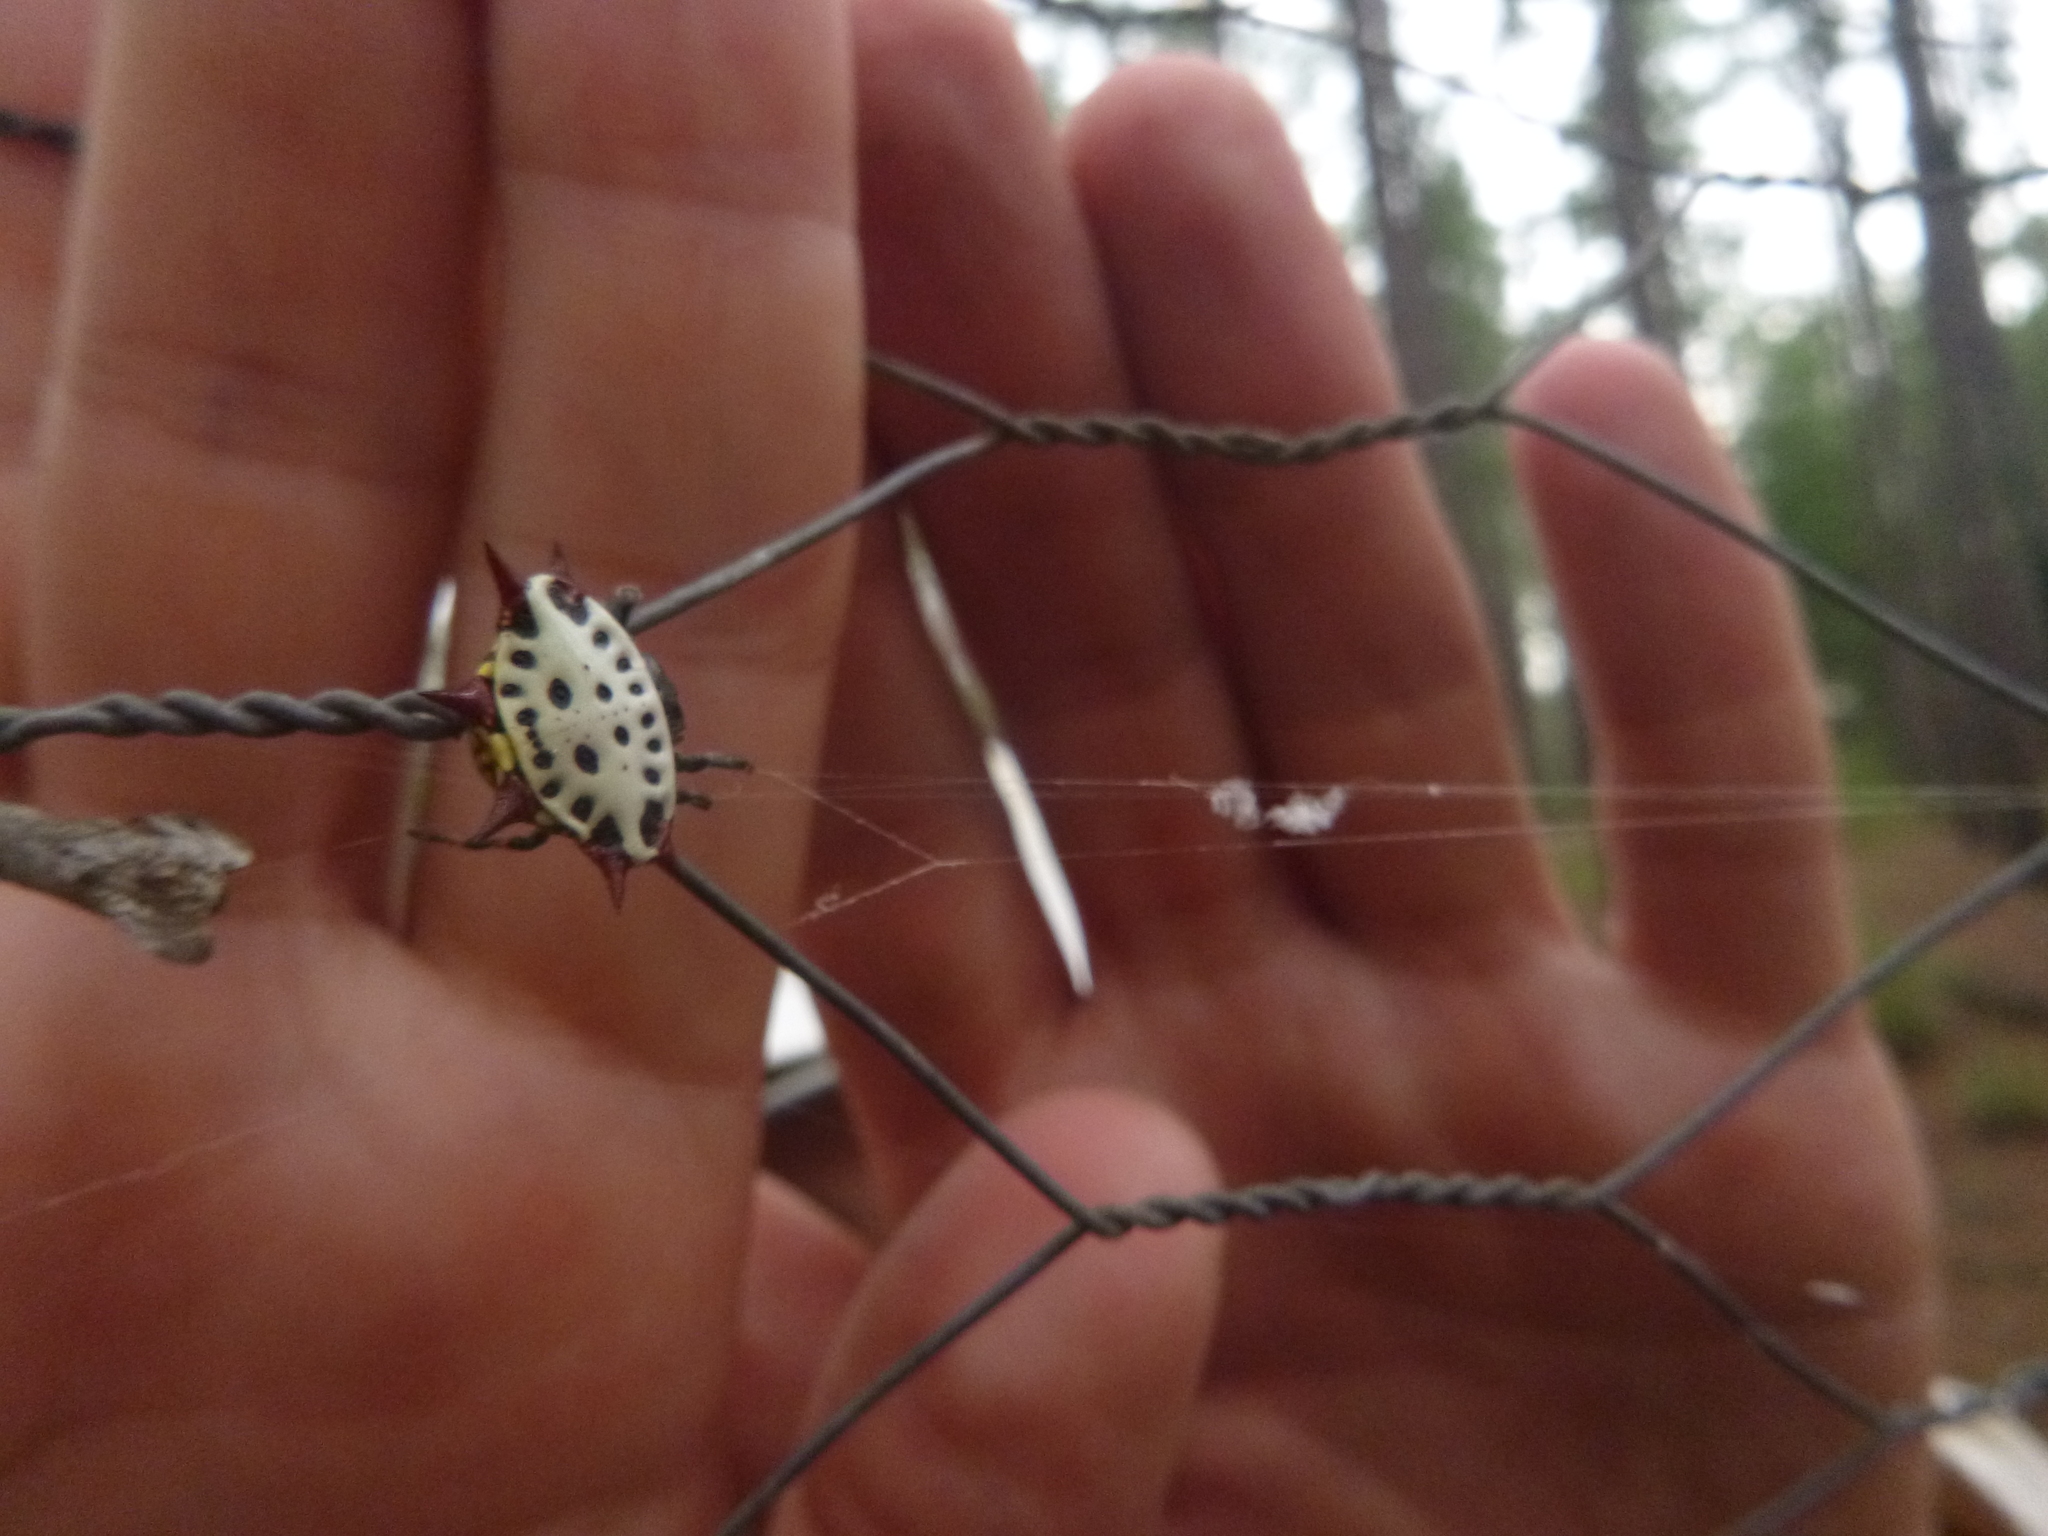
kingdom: Animalia
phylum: Arthropoda
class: Arachnida
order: Araneae
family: Araneidae
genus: Gasteracantha
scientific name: Gasteracantha cancriformis
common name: Orb weavers
